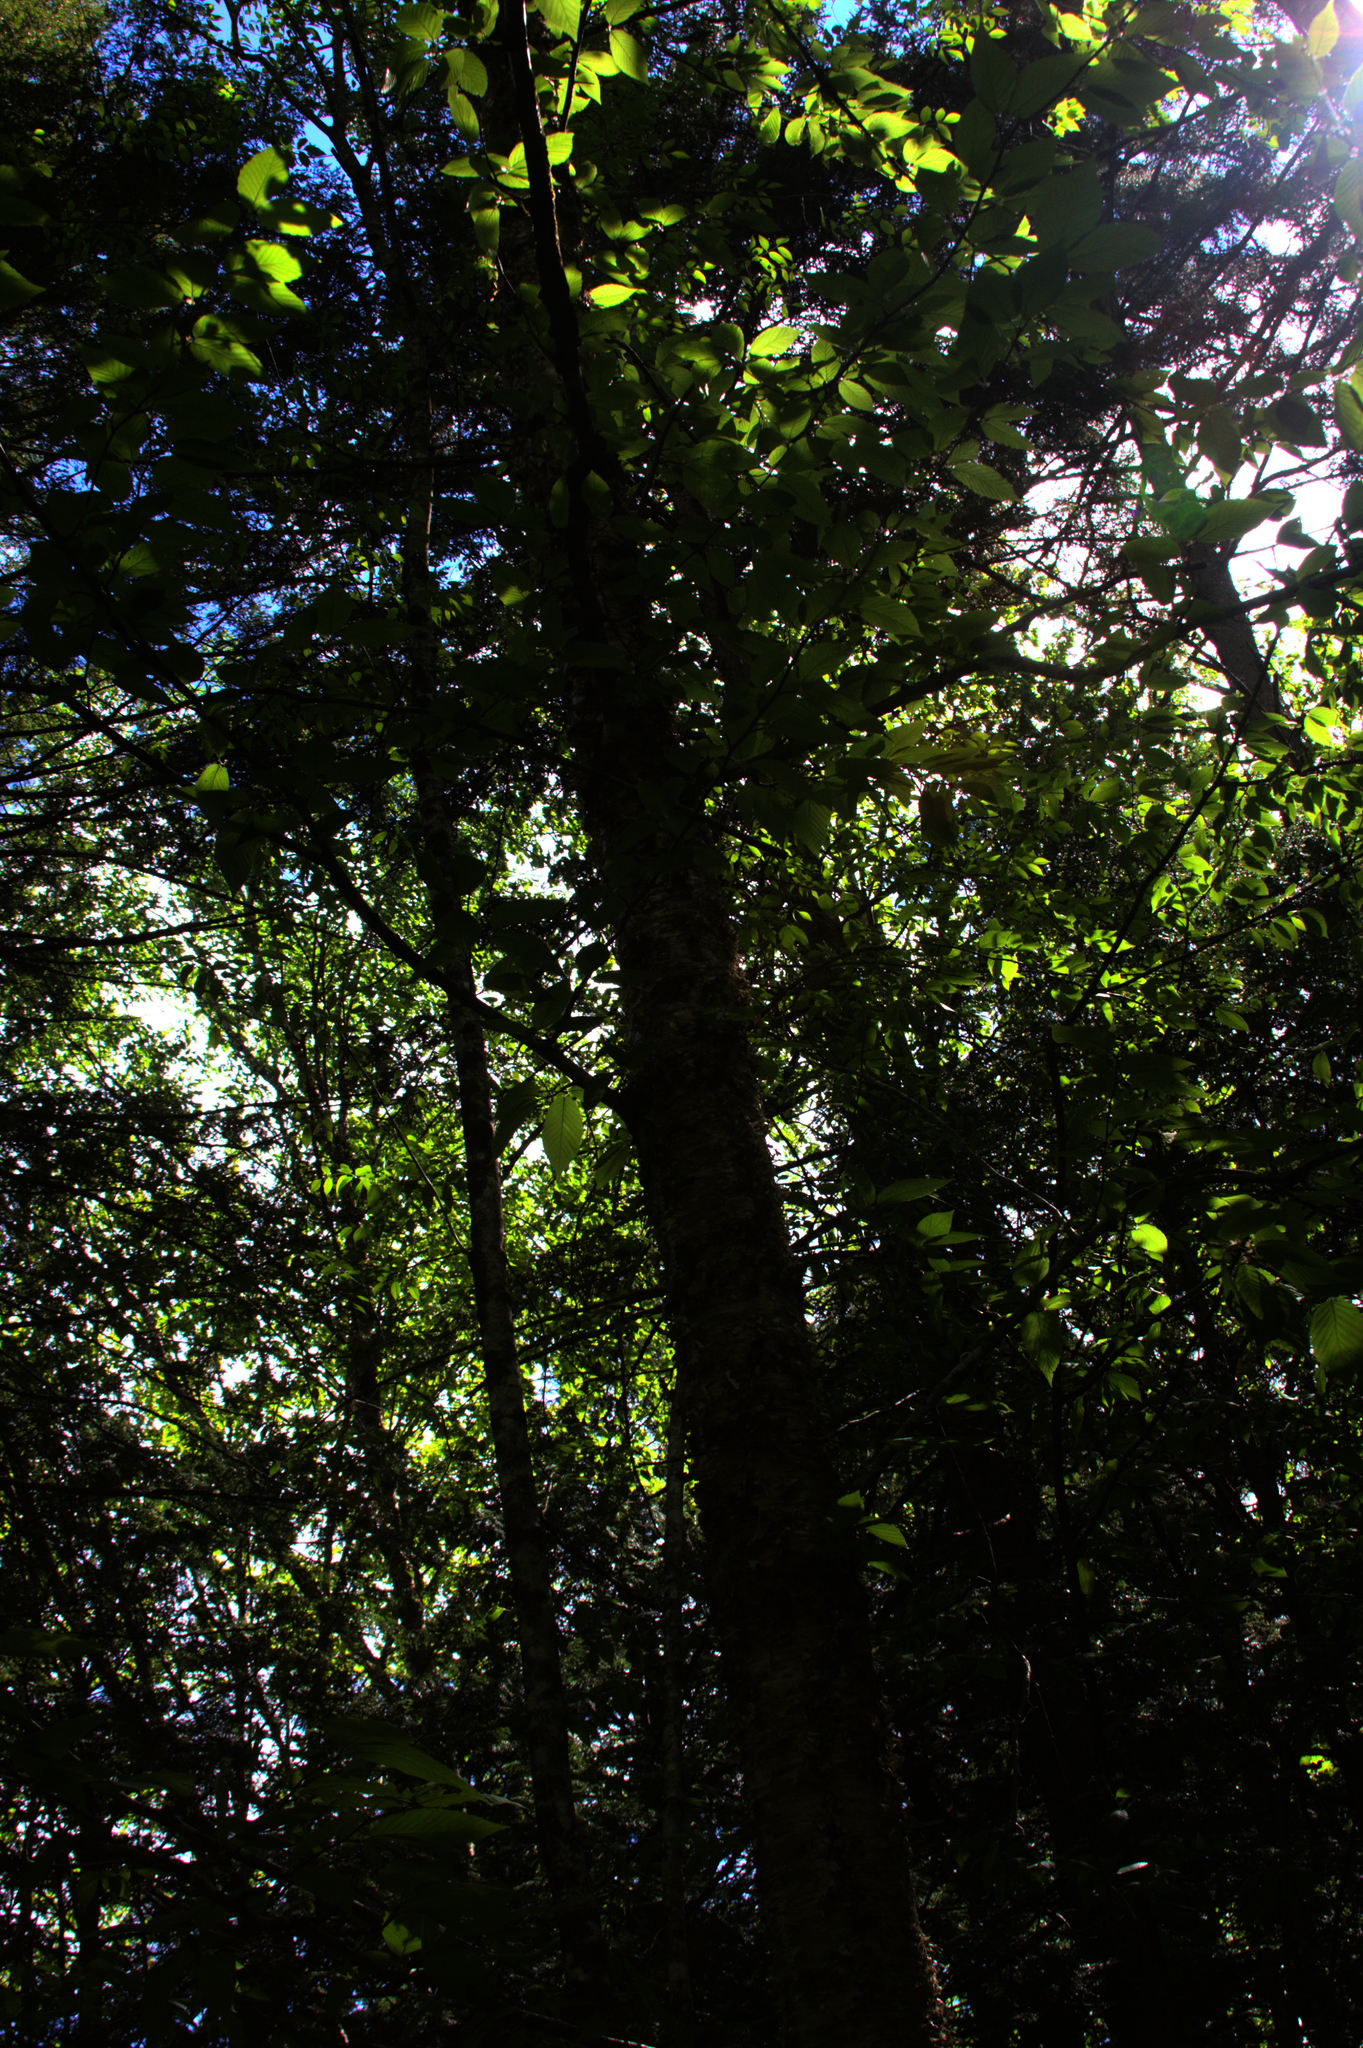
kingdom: Plantae
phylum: Tracheophyta
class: Magnoliopsida
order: Fagales
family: Betulaceae
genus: Betula
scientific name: Betula alleghaniensis
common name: Yellow birch
